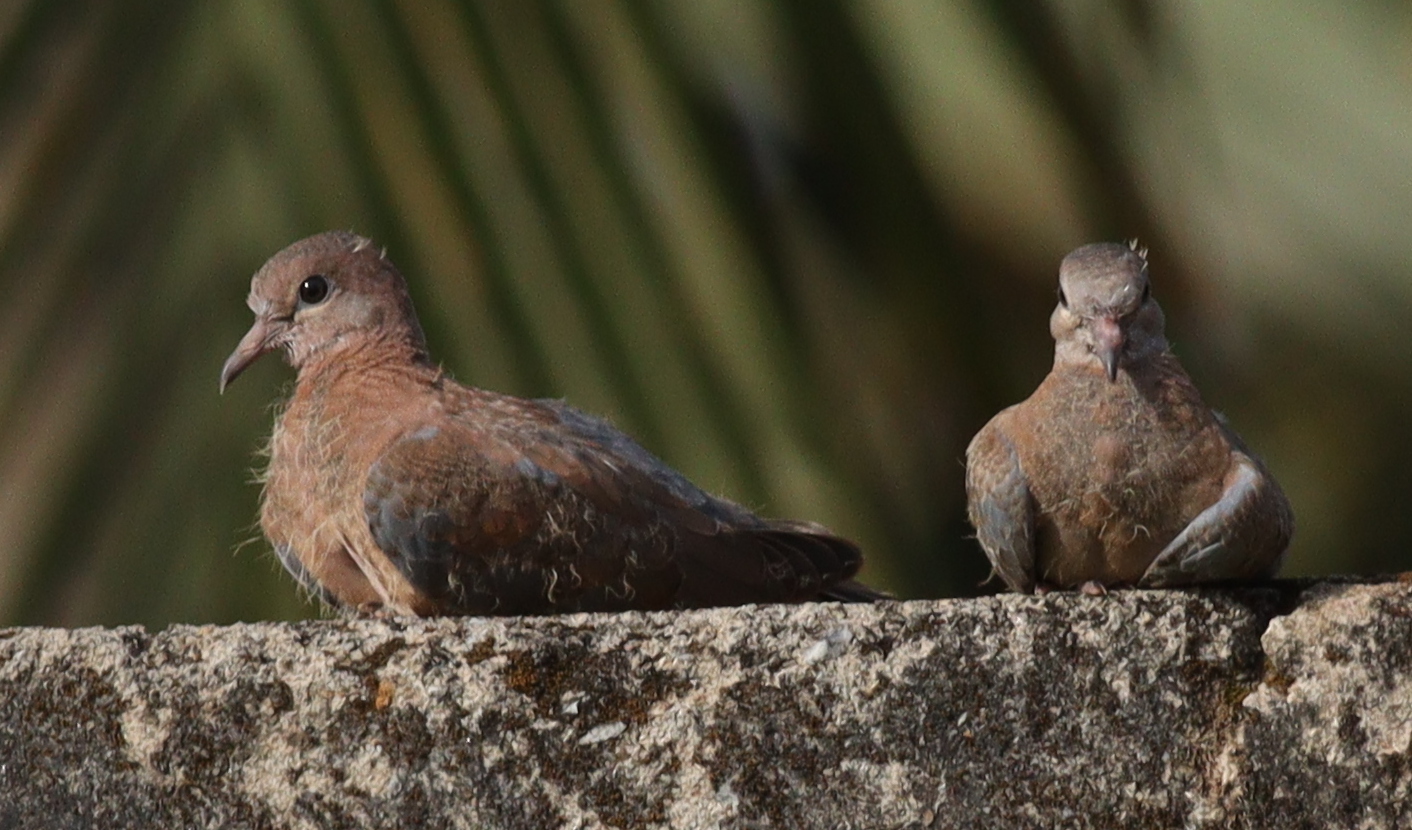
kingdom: Animalia
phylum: Chordata
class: Aves
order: Columbiformes
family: Columbidae
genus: Spilopelia
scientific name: Spilopelia senegalensis
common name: Laughing dove
